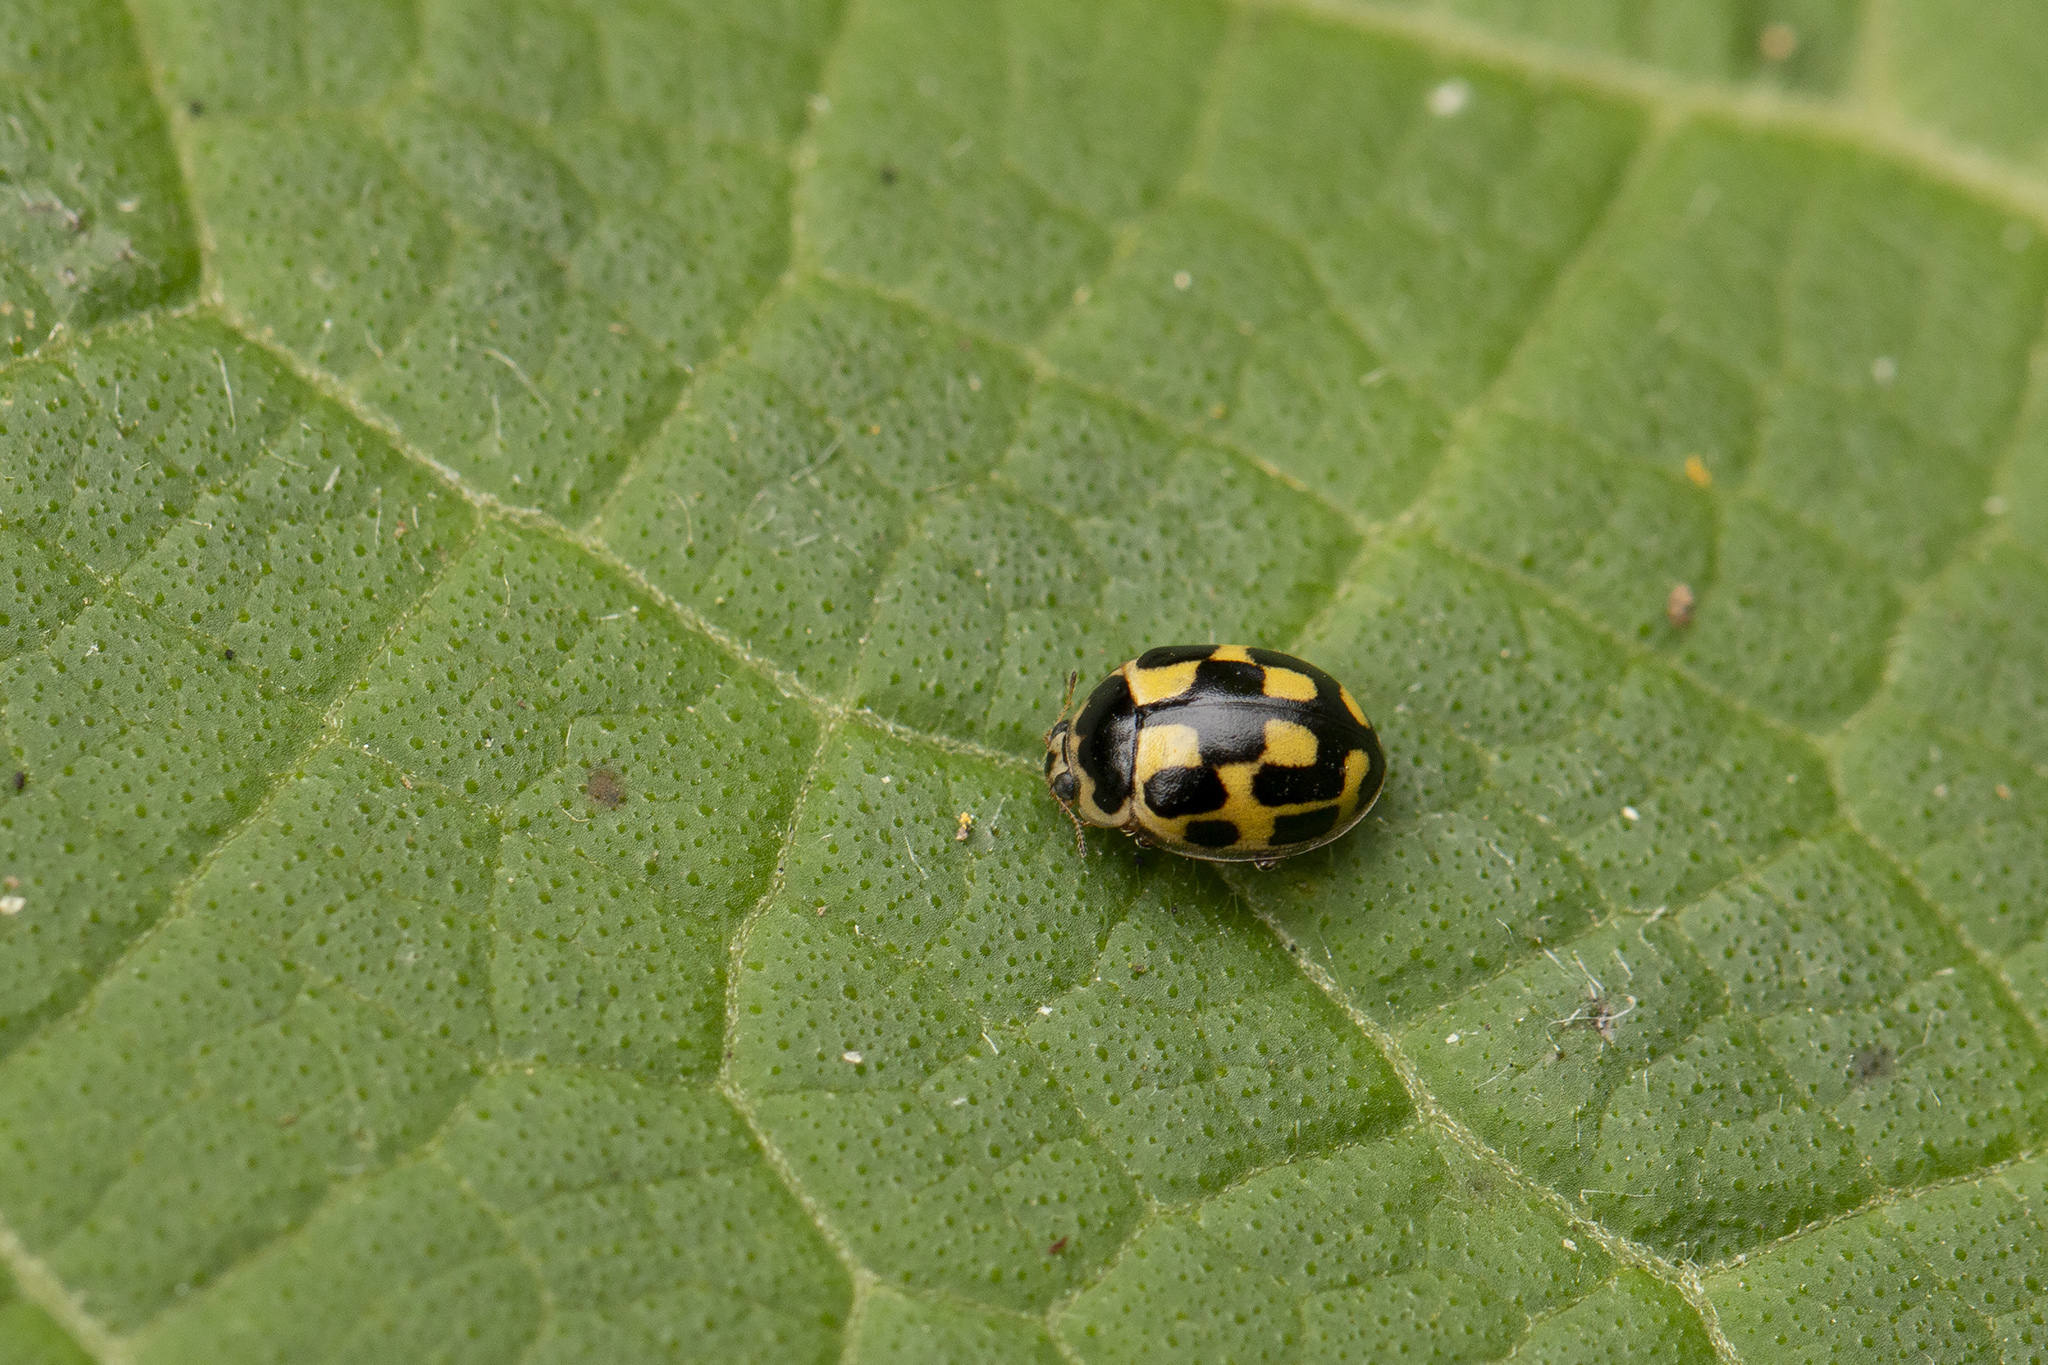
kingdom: Animalia
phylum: Arthropoda
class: Insecta
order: Coleoptera
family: Coccinellidae
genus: Propylaea
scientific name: Propylaea quatuordecimpunctata
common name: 14-spotted ladybird beetle
